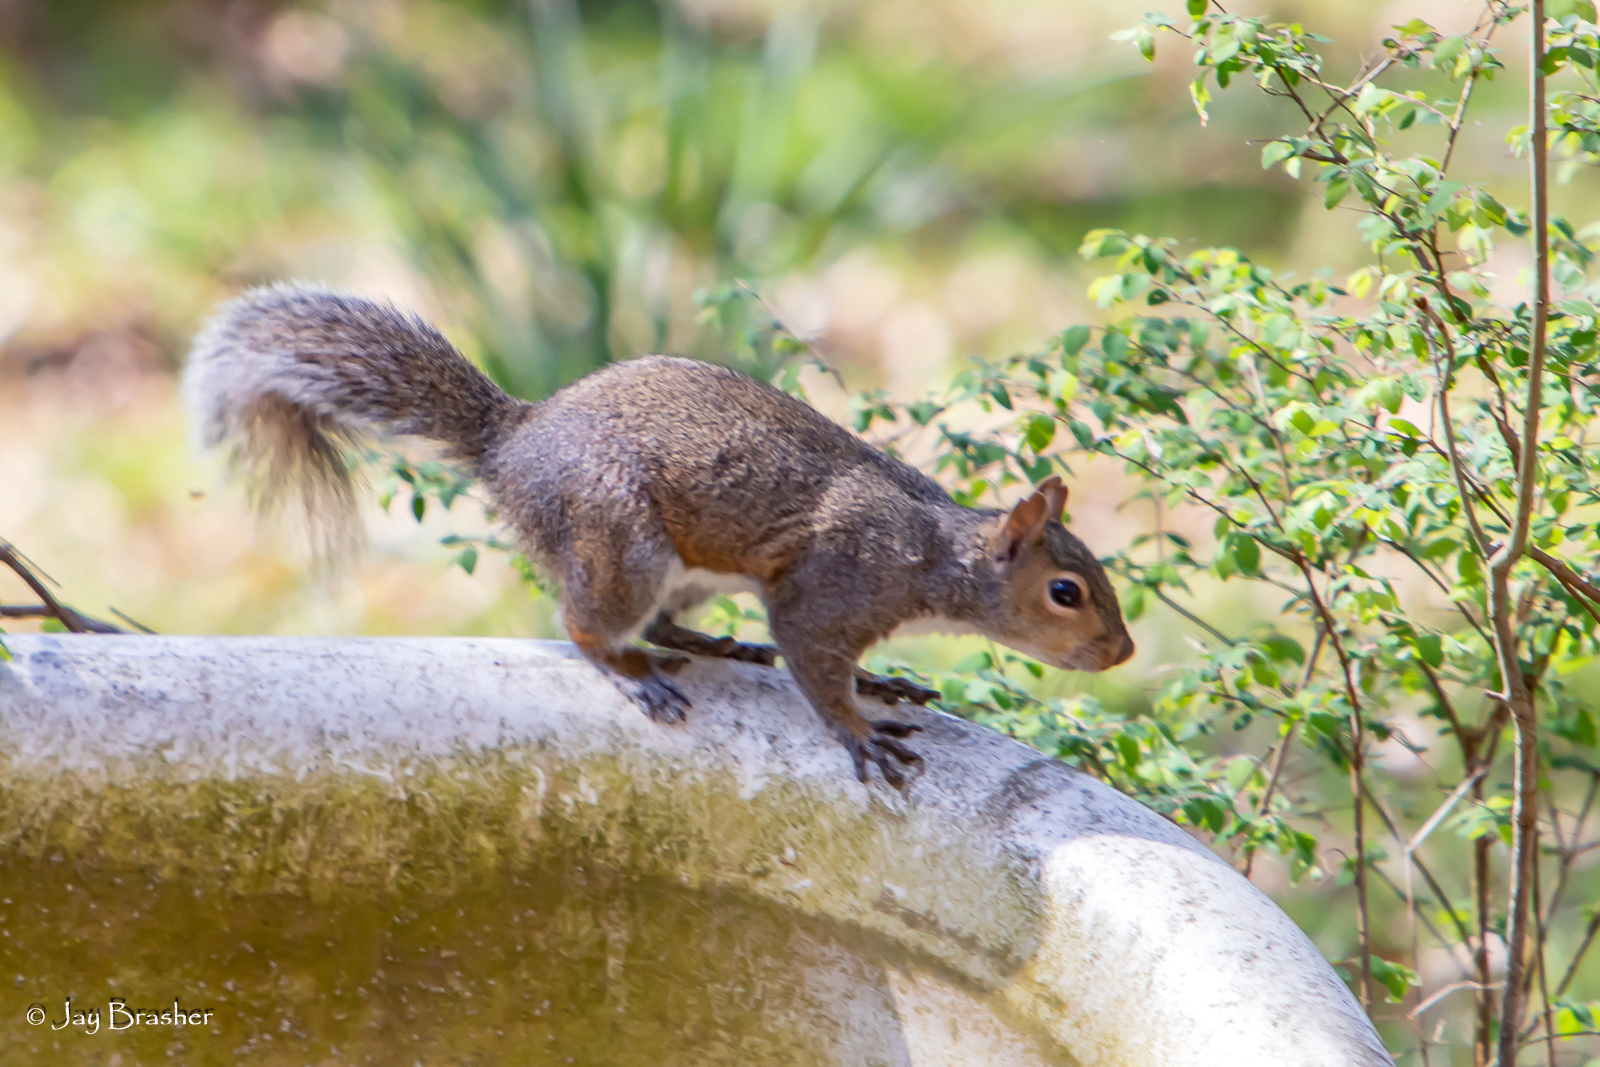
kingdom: Animalia
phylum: Chordata
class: Mammalia
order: Rodentia
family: Sciuridae
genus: Sciurus
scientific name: Sciurus carolinensis
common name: Eastern gray squirrel
